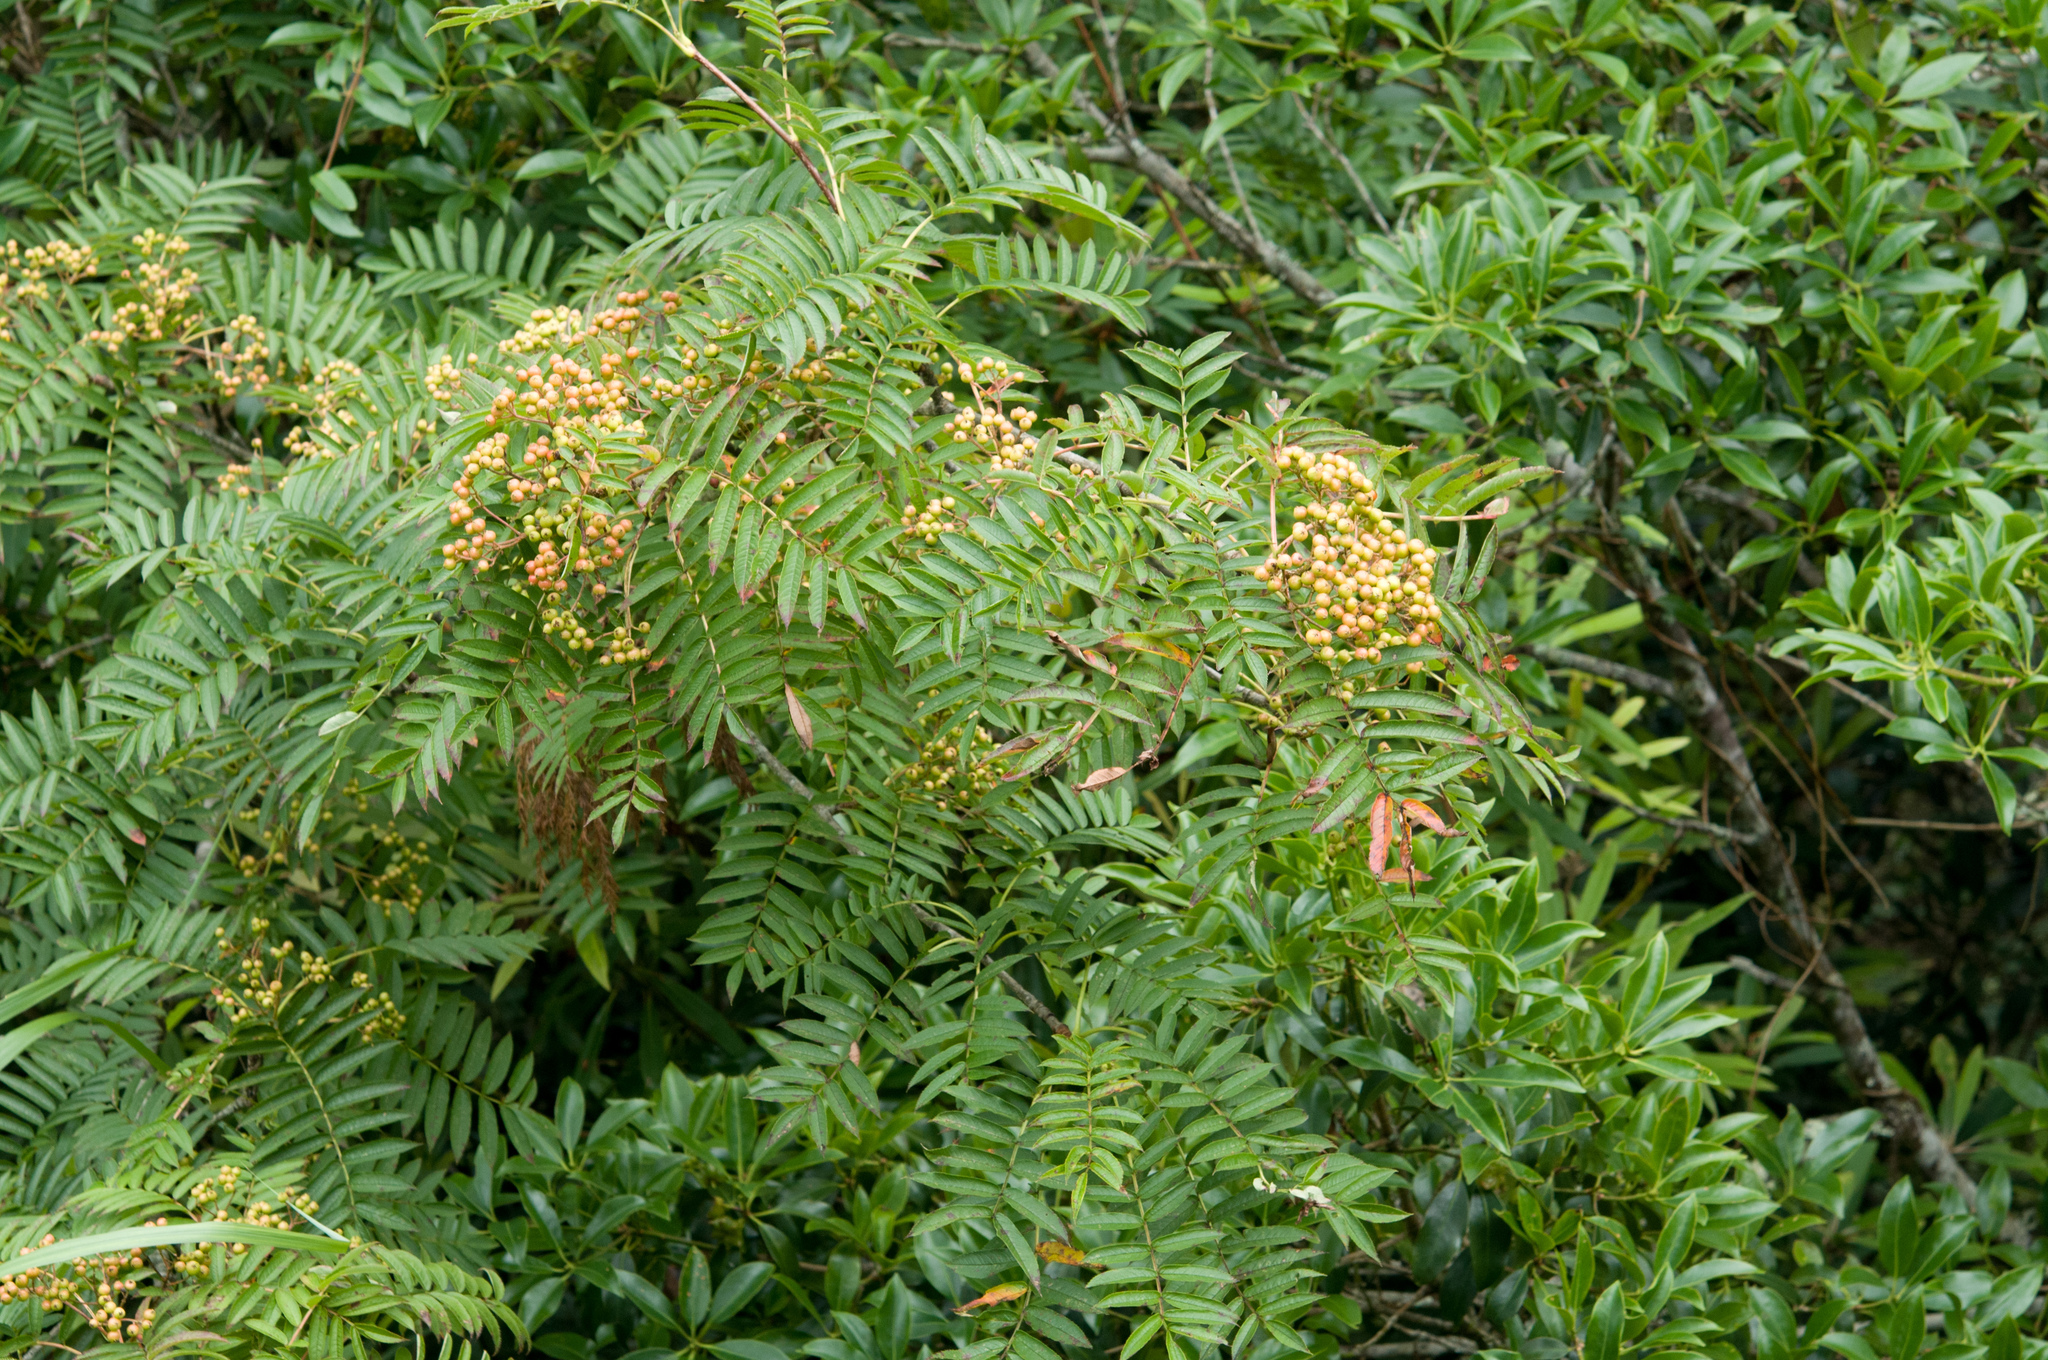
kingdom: Plantae
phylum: Tracheophyta
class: Magnoliopsida
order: Rosales
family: Rosaceae
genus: Sorbus
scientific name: Sorbus randaiensis
